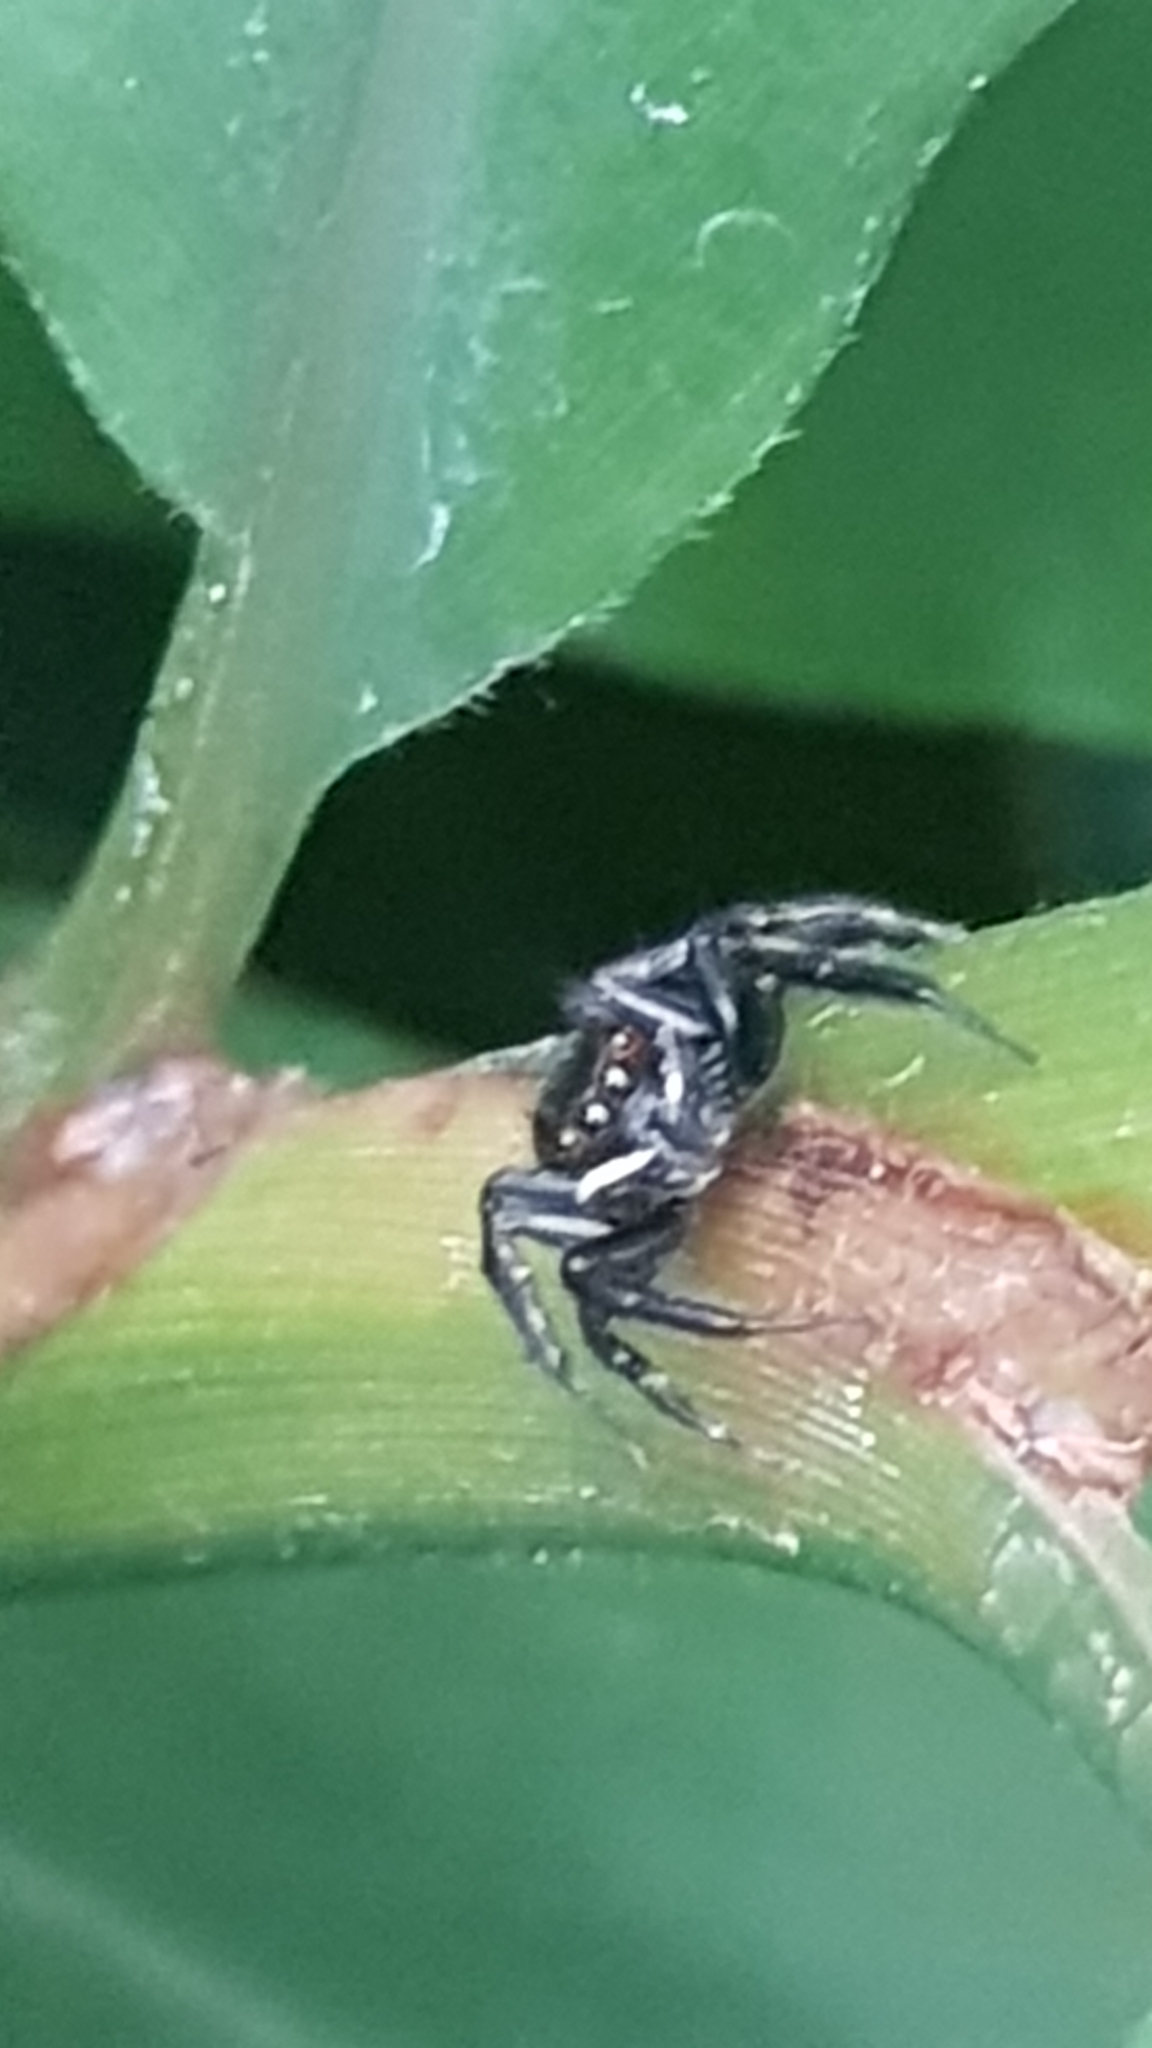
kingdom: Animalia
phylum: Arthropoda
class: Arachnida
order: Araneae
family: Salticidae
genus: Hasarius
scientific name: Hasarius adansoni
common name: Jumping spider
